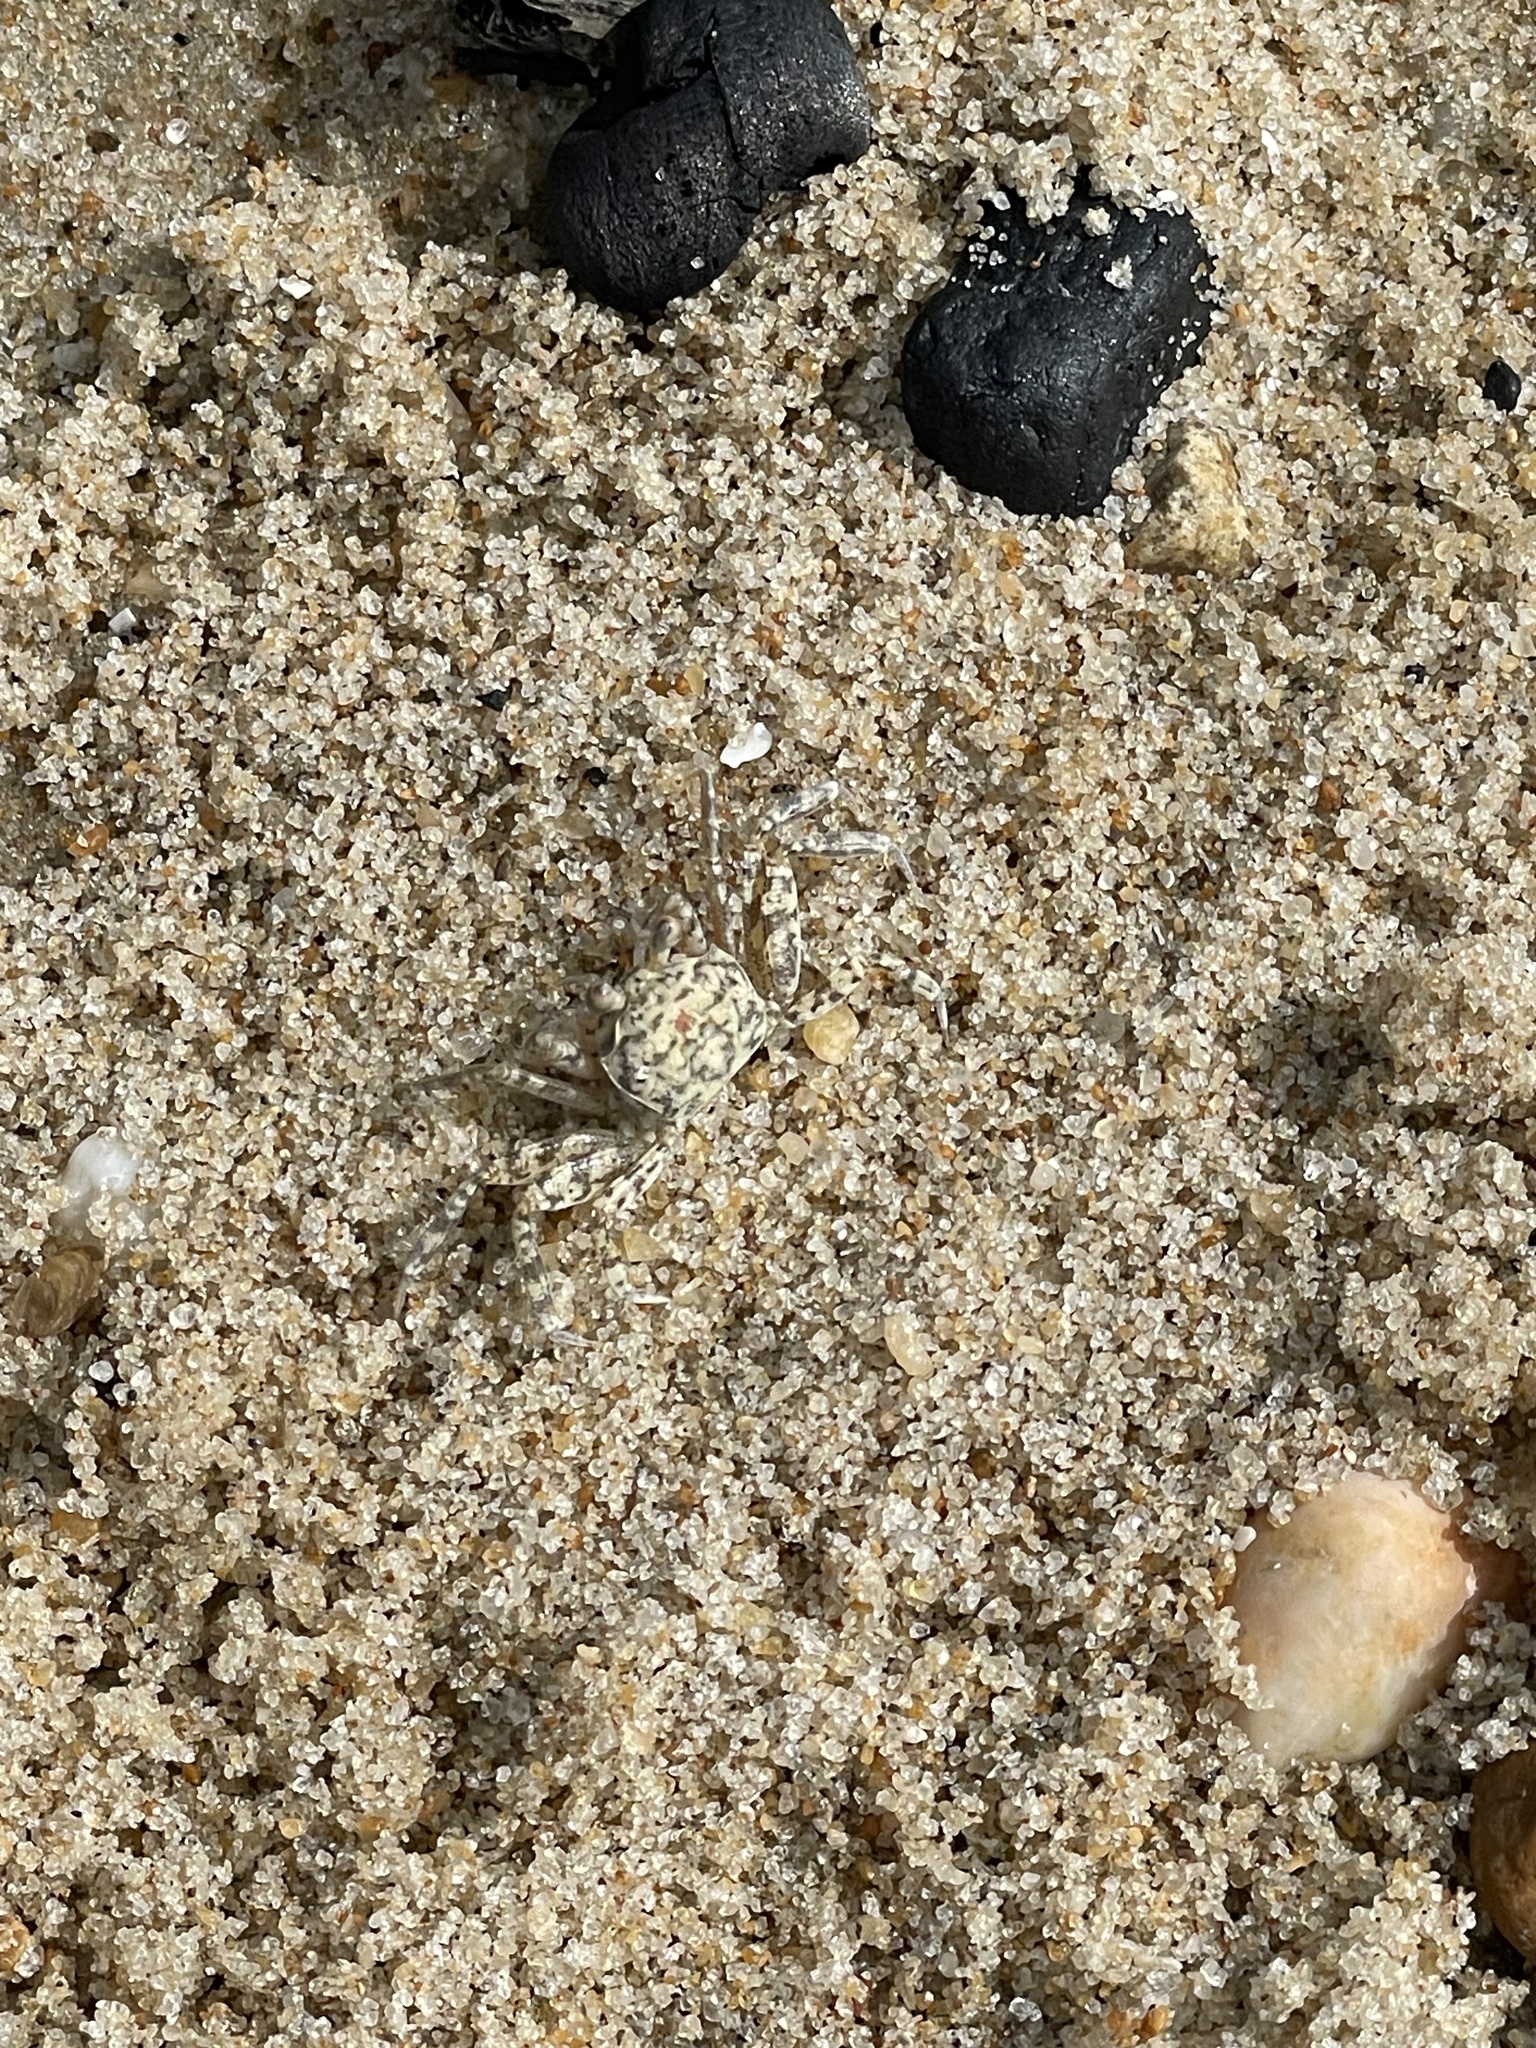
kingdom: Animalia
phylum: Arthropoda
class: Malacostraca
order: Decapoda
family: Ocypodidae
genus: Ocypode
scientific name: Ocypode quadrata
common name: Ghost crab
